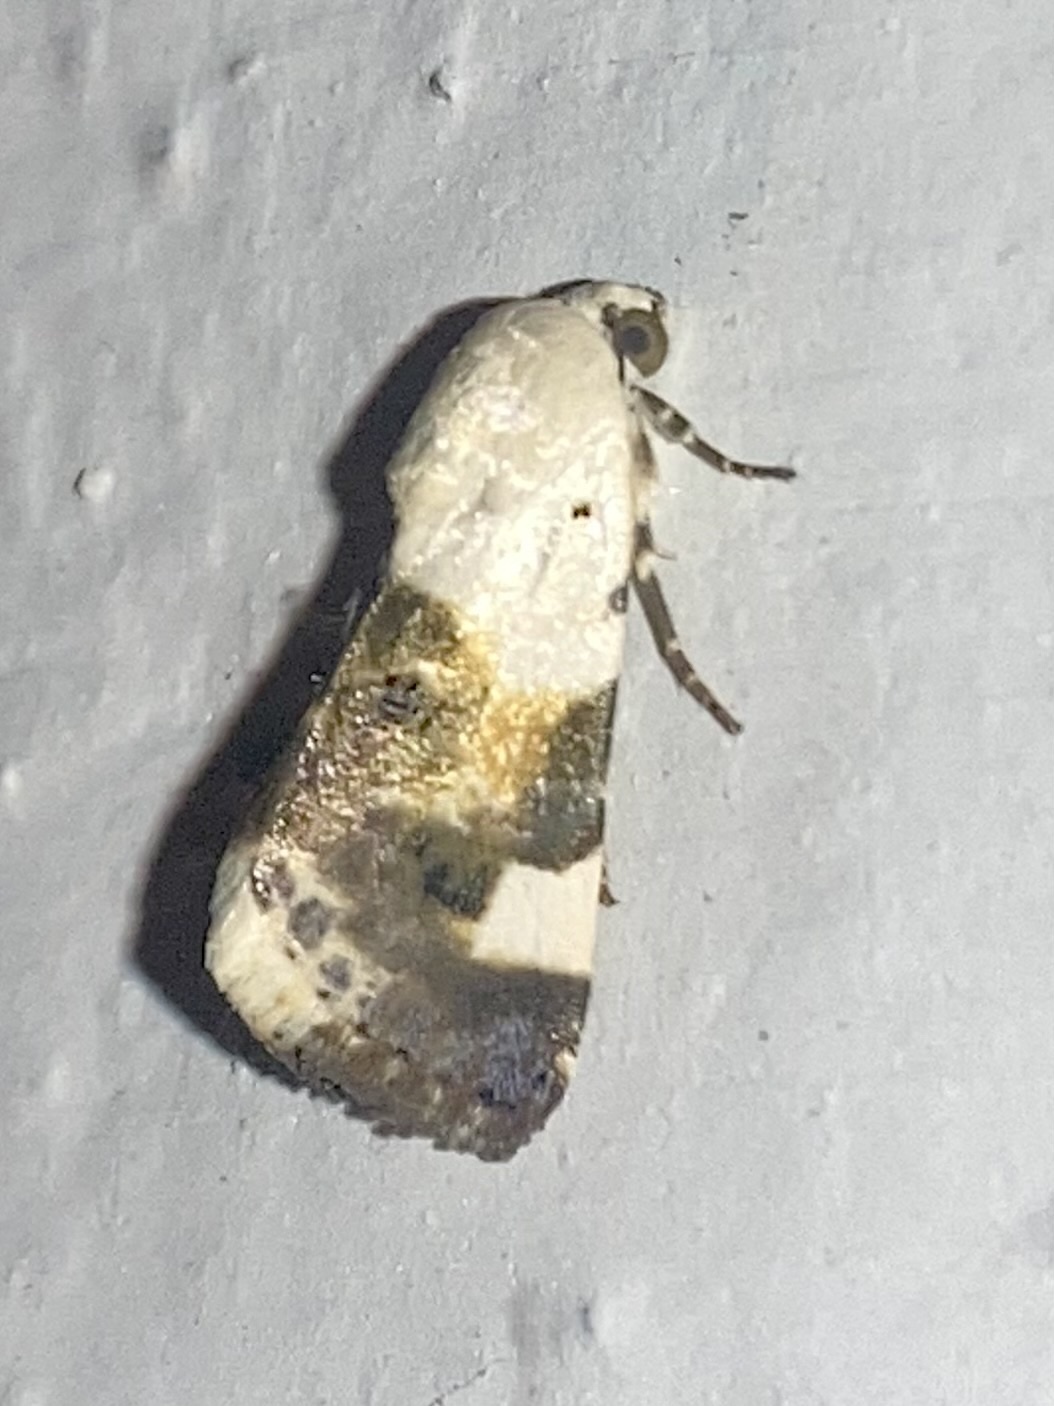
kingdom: Animalia
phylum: Arthropoda
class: Insecta
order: Lepidoptera
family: Noctuidae
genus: Acontia
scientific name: Acontia lucida
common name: Pale shoulder
